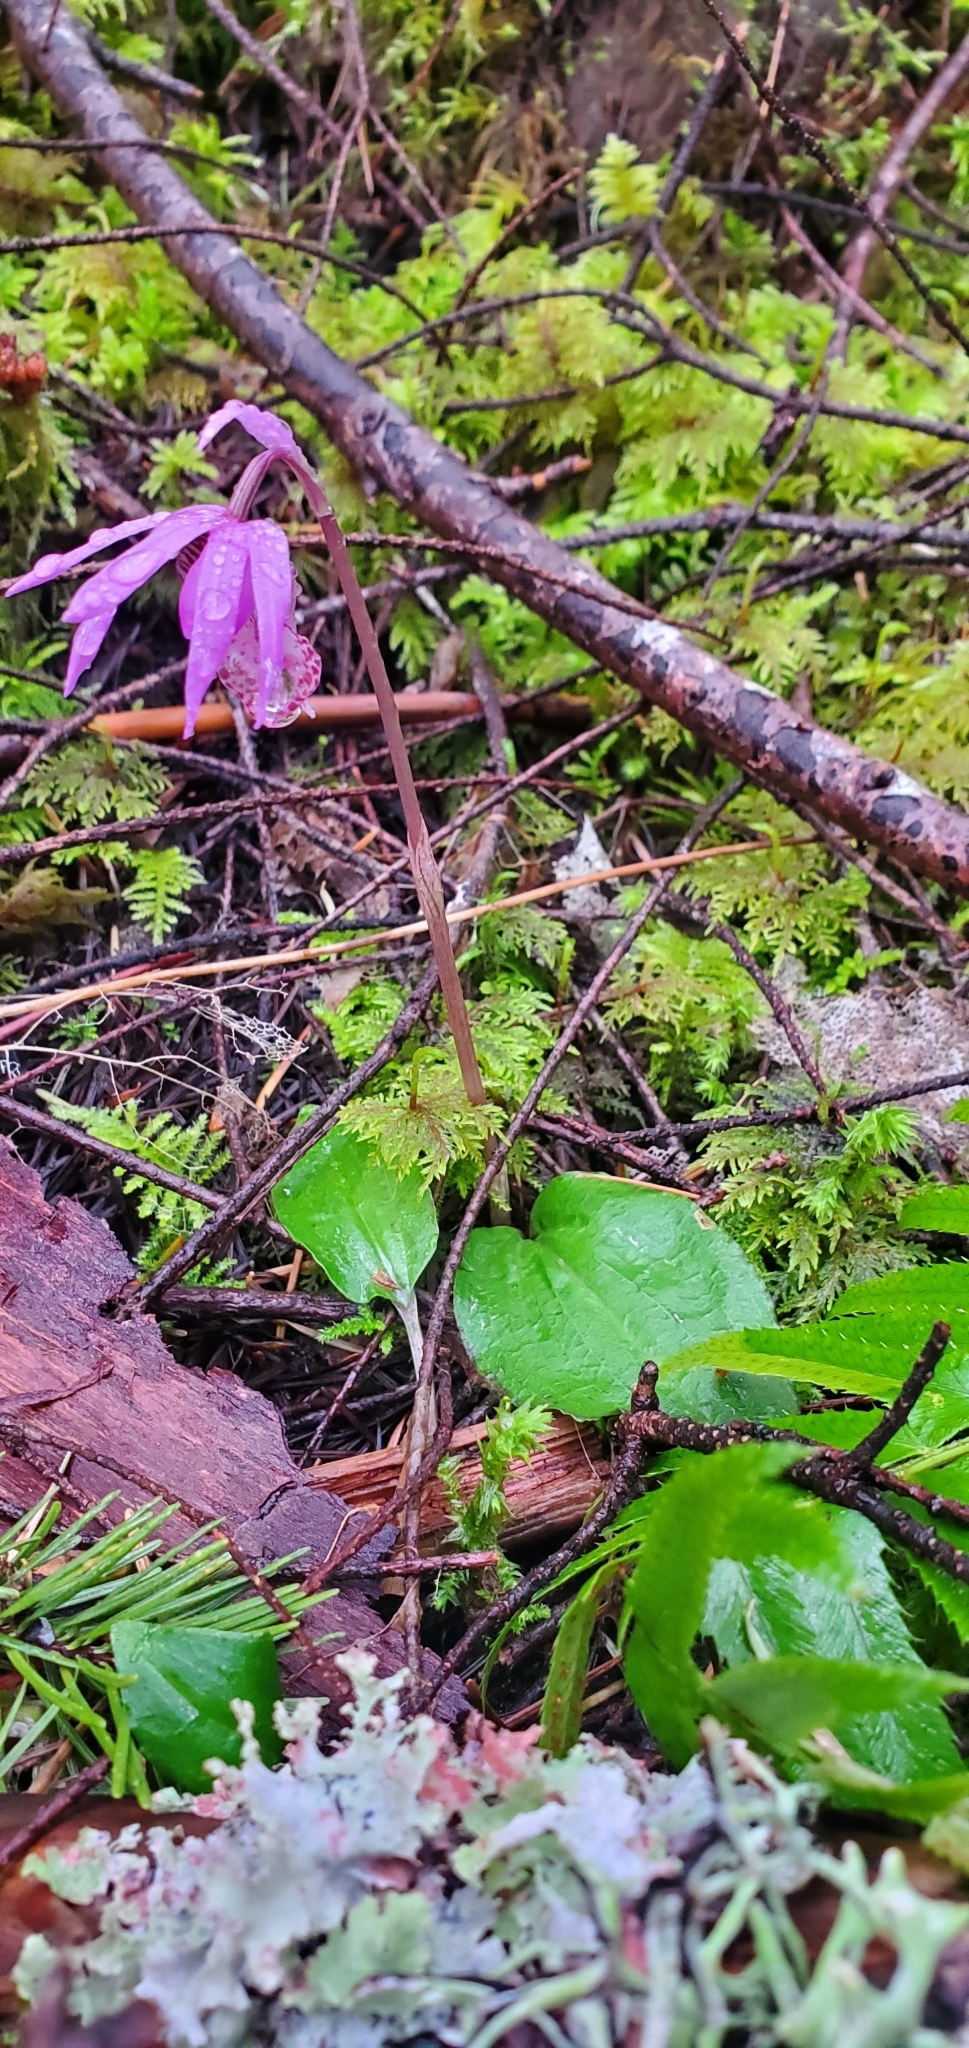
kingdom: Plantae
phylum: Tracheophyta
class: Liliopsida
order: Asparagales
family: Orchidaceae
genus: Calypso
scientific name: Calypso bulbosa
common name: Calypso
